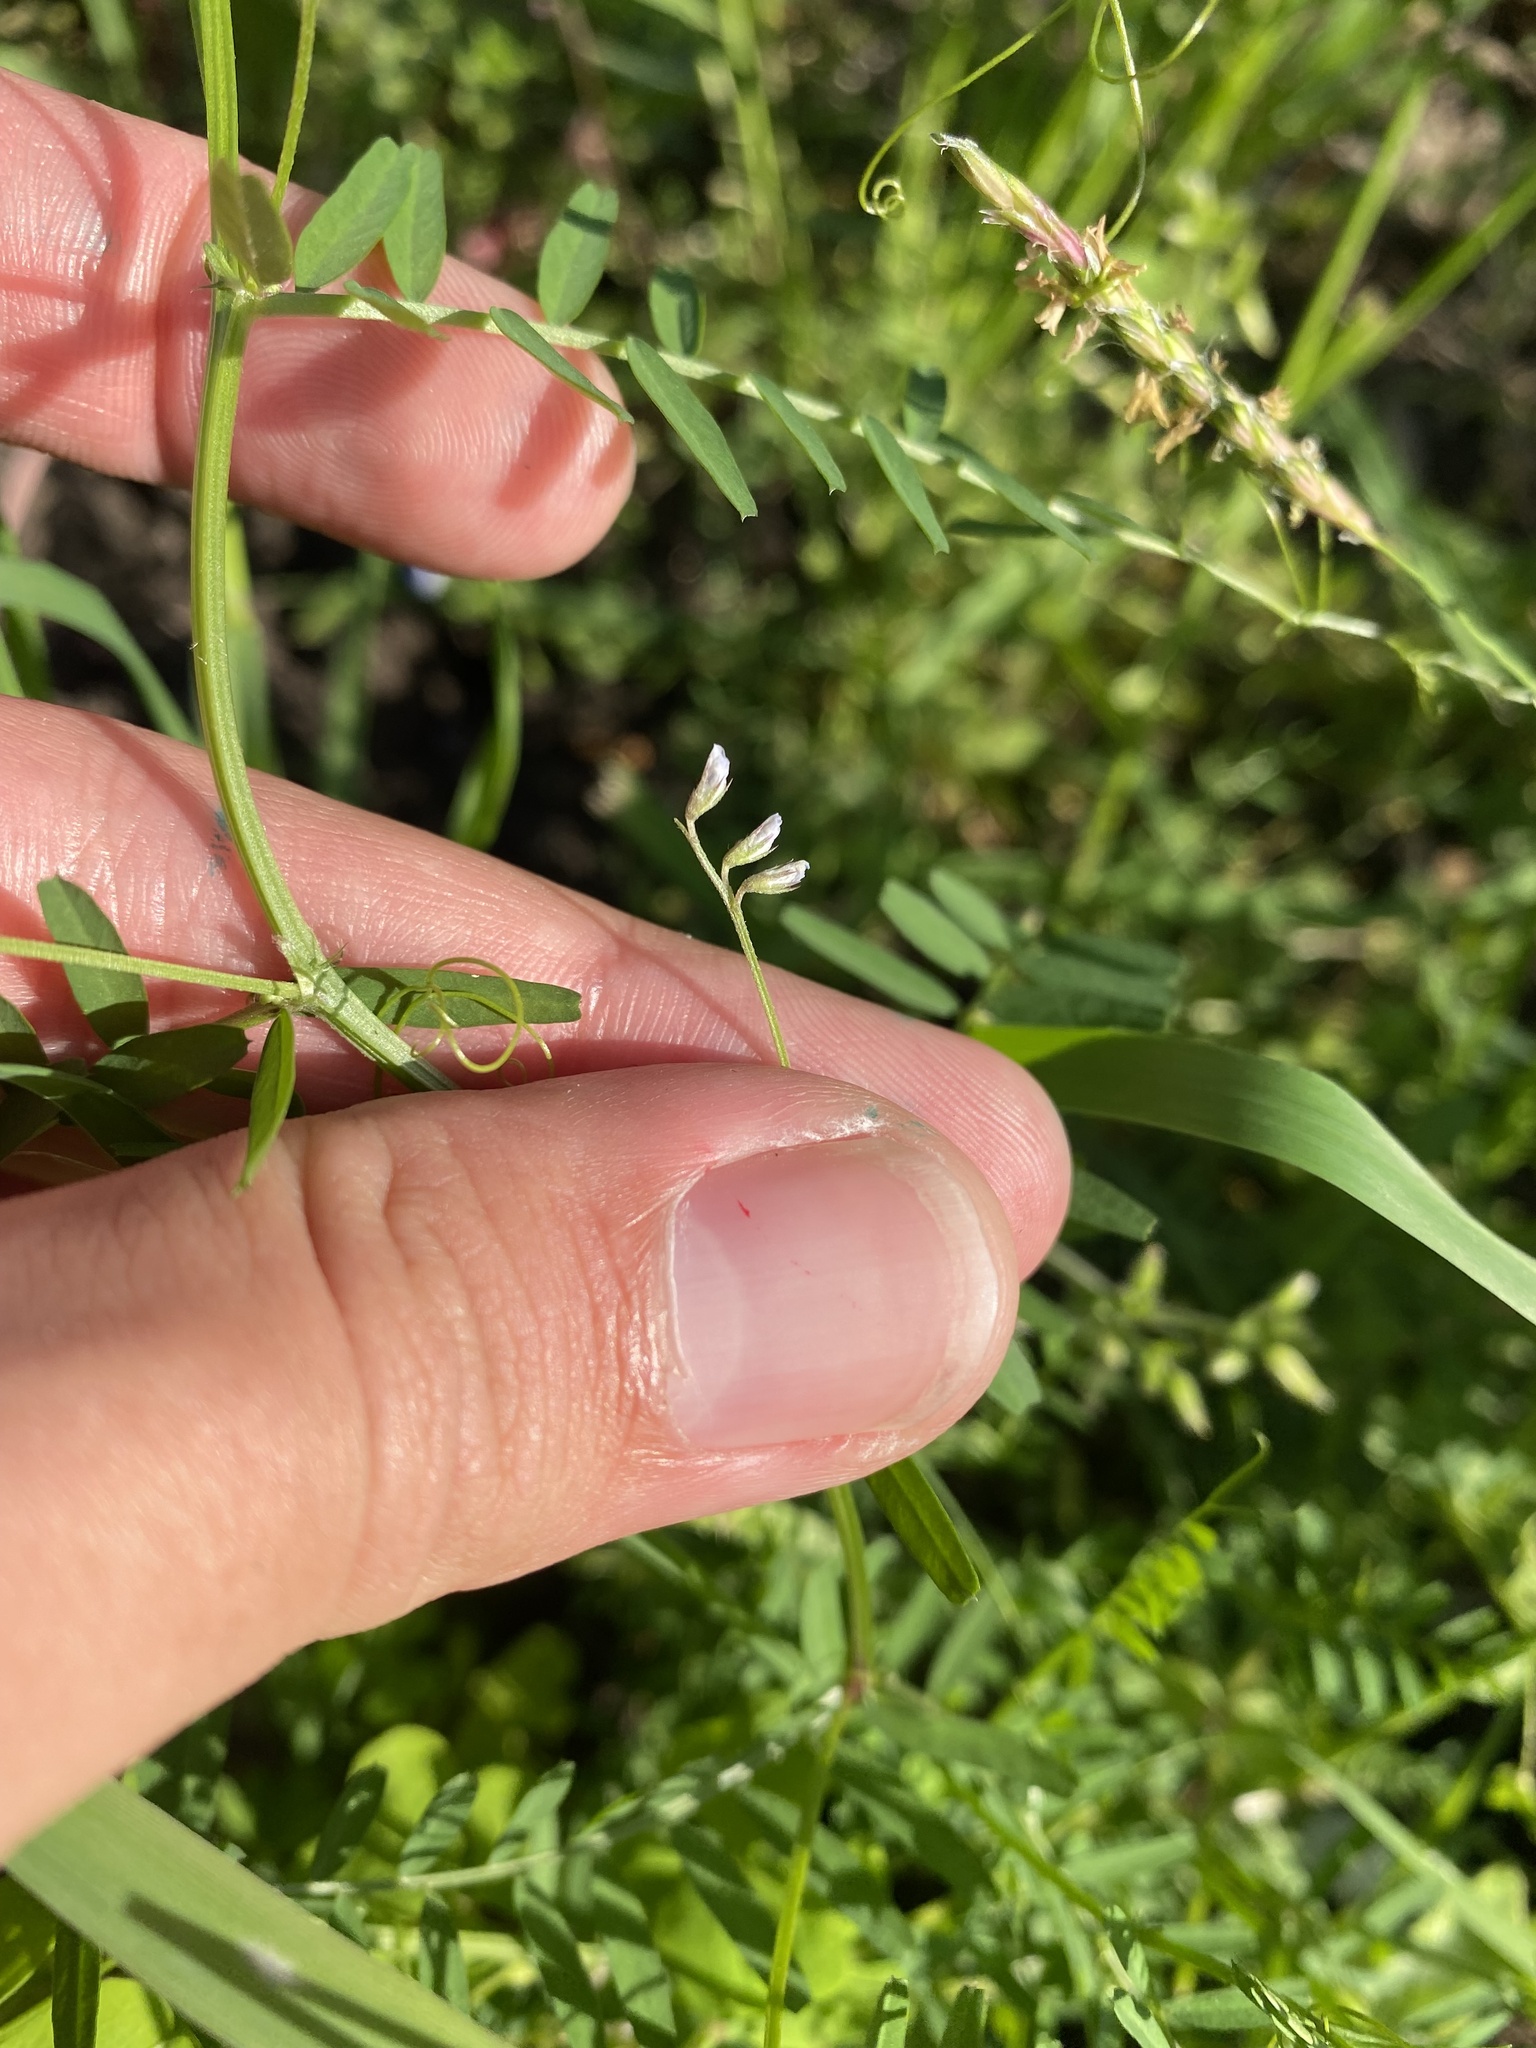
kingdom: Plantae
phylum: Tracheophyta
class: Magnoliopsida
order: Fabales
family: Fabaceae
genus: Vicia
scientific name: Vicia tetrasperma
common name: Smooth tare
